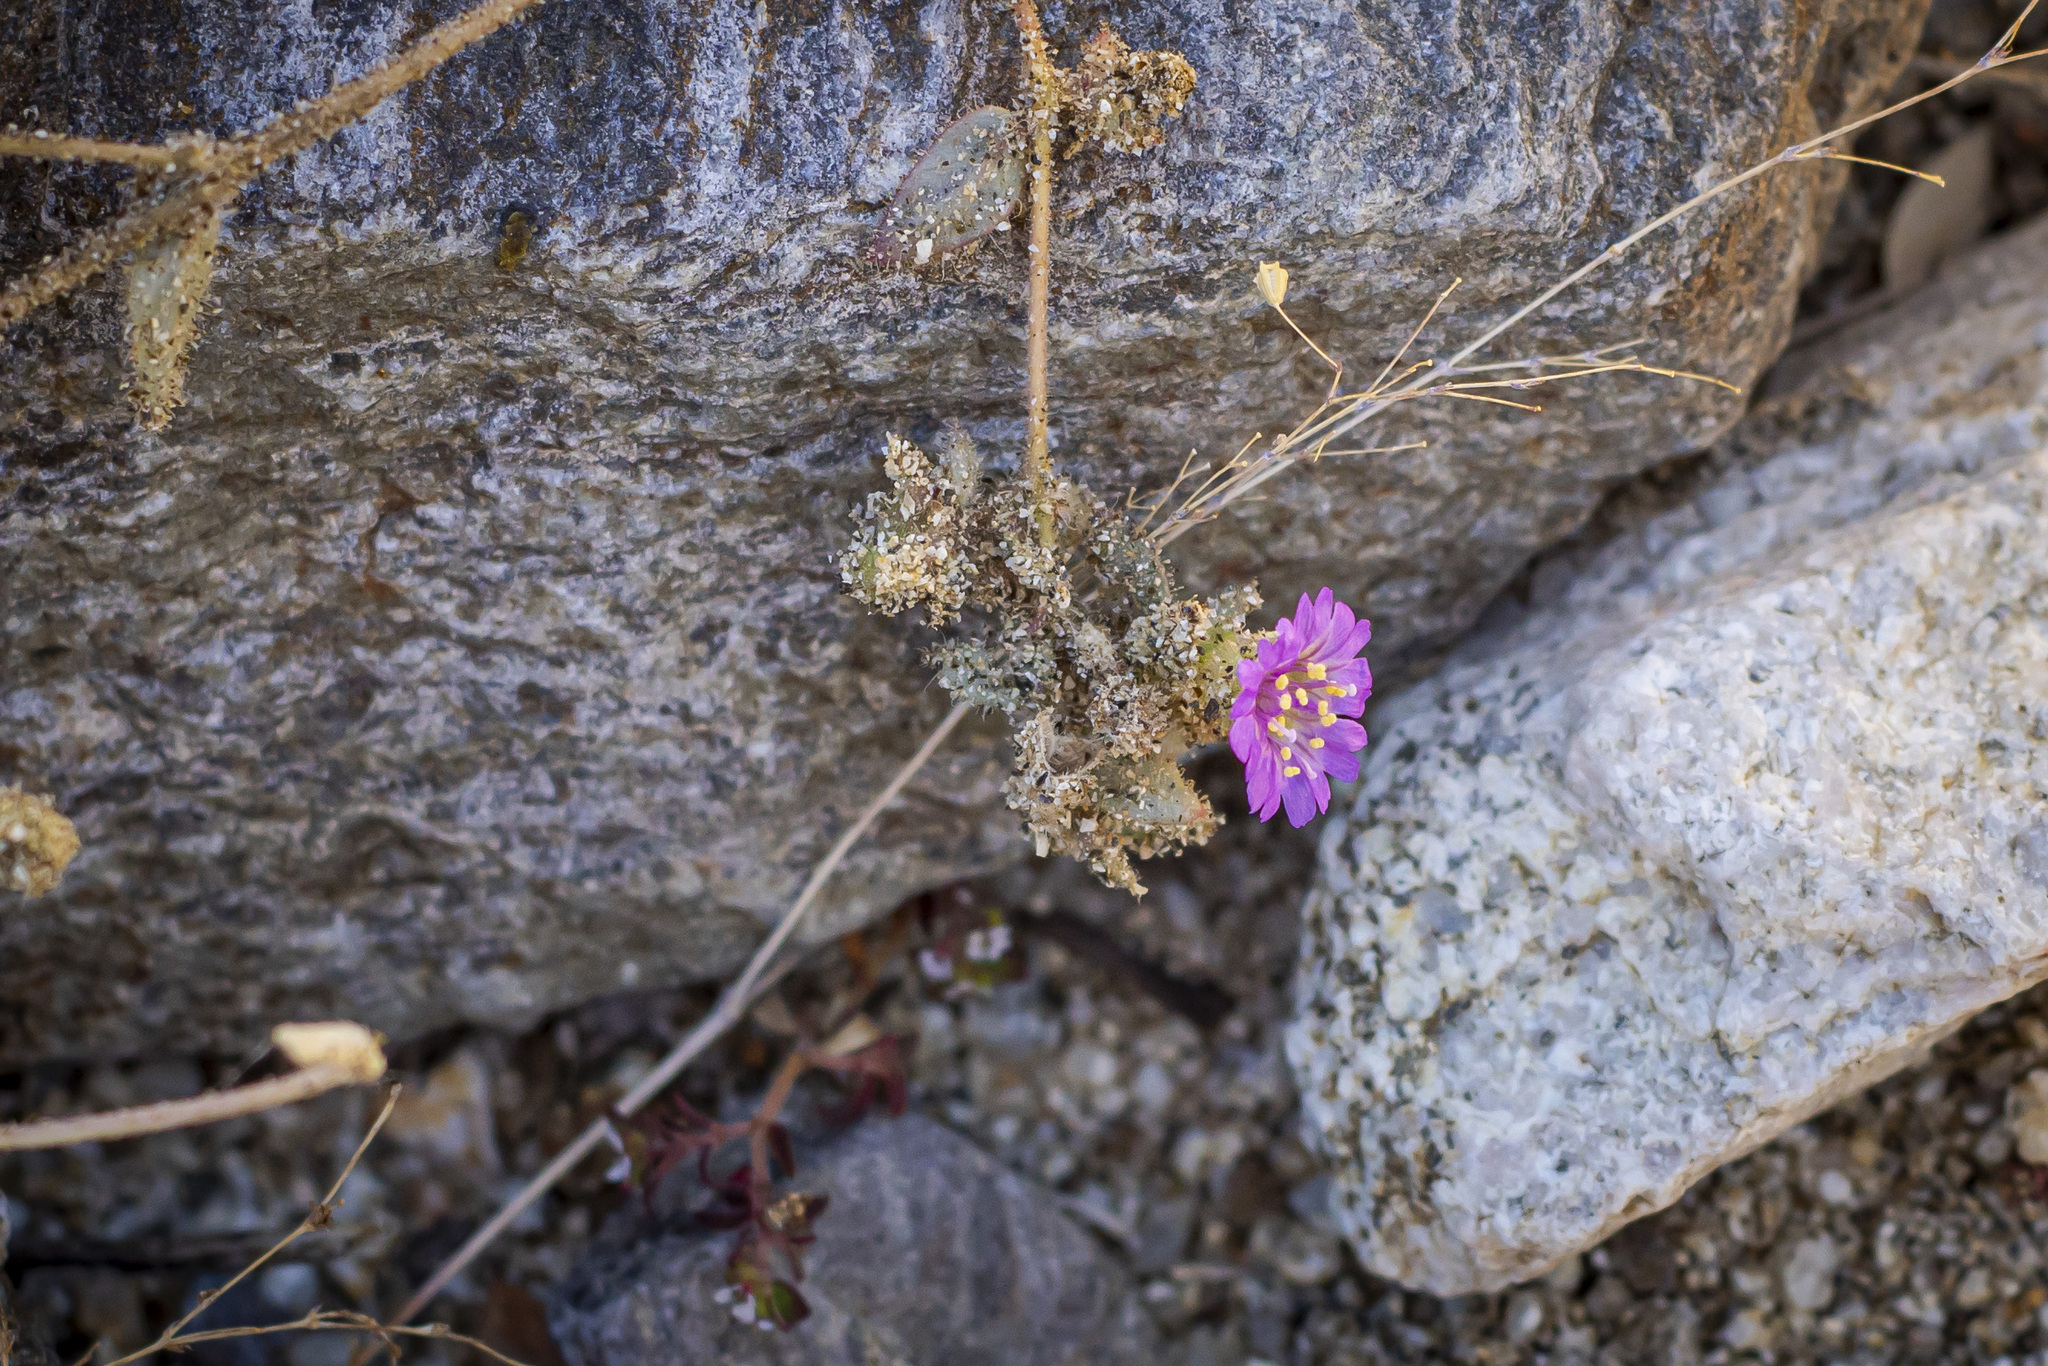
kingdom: Plantae
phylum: Tracheophyta
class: Magnoliopsida
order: Caryophyllales
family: Nyctaginaceae
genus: Allionia
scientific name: Allionia incarnata
